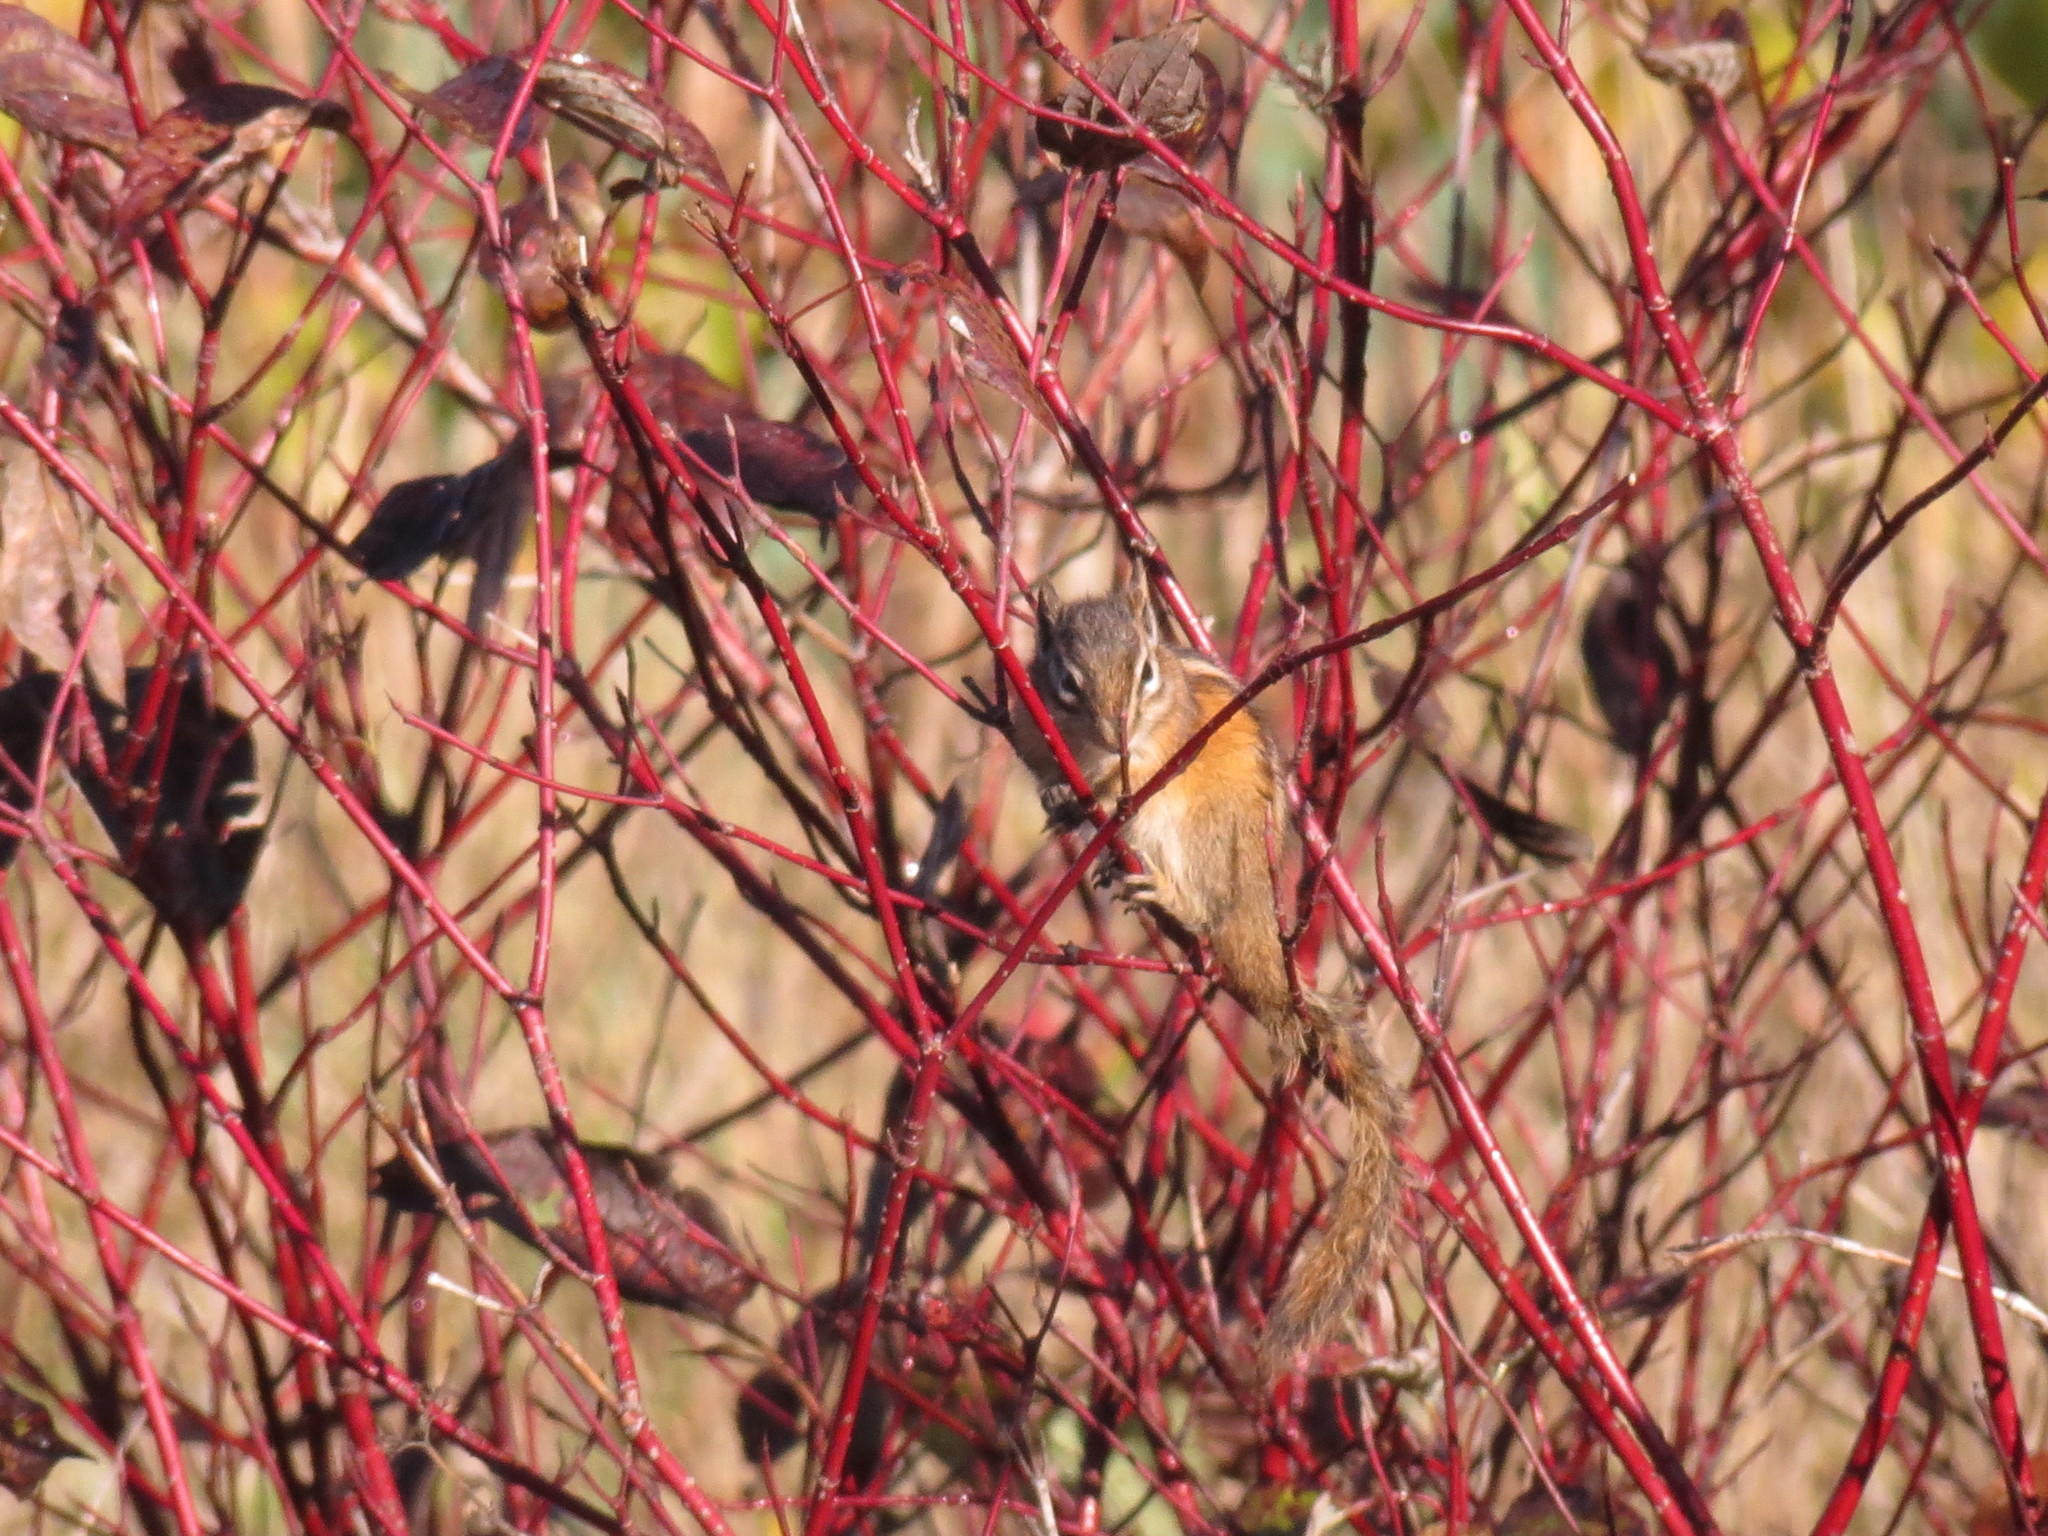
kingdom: Animalia
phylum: Chordata
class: Mammalia
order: Rodentia
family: Sciuridae
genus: Tamias
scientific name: Tamias minimus
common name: Least chipmunk
